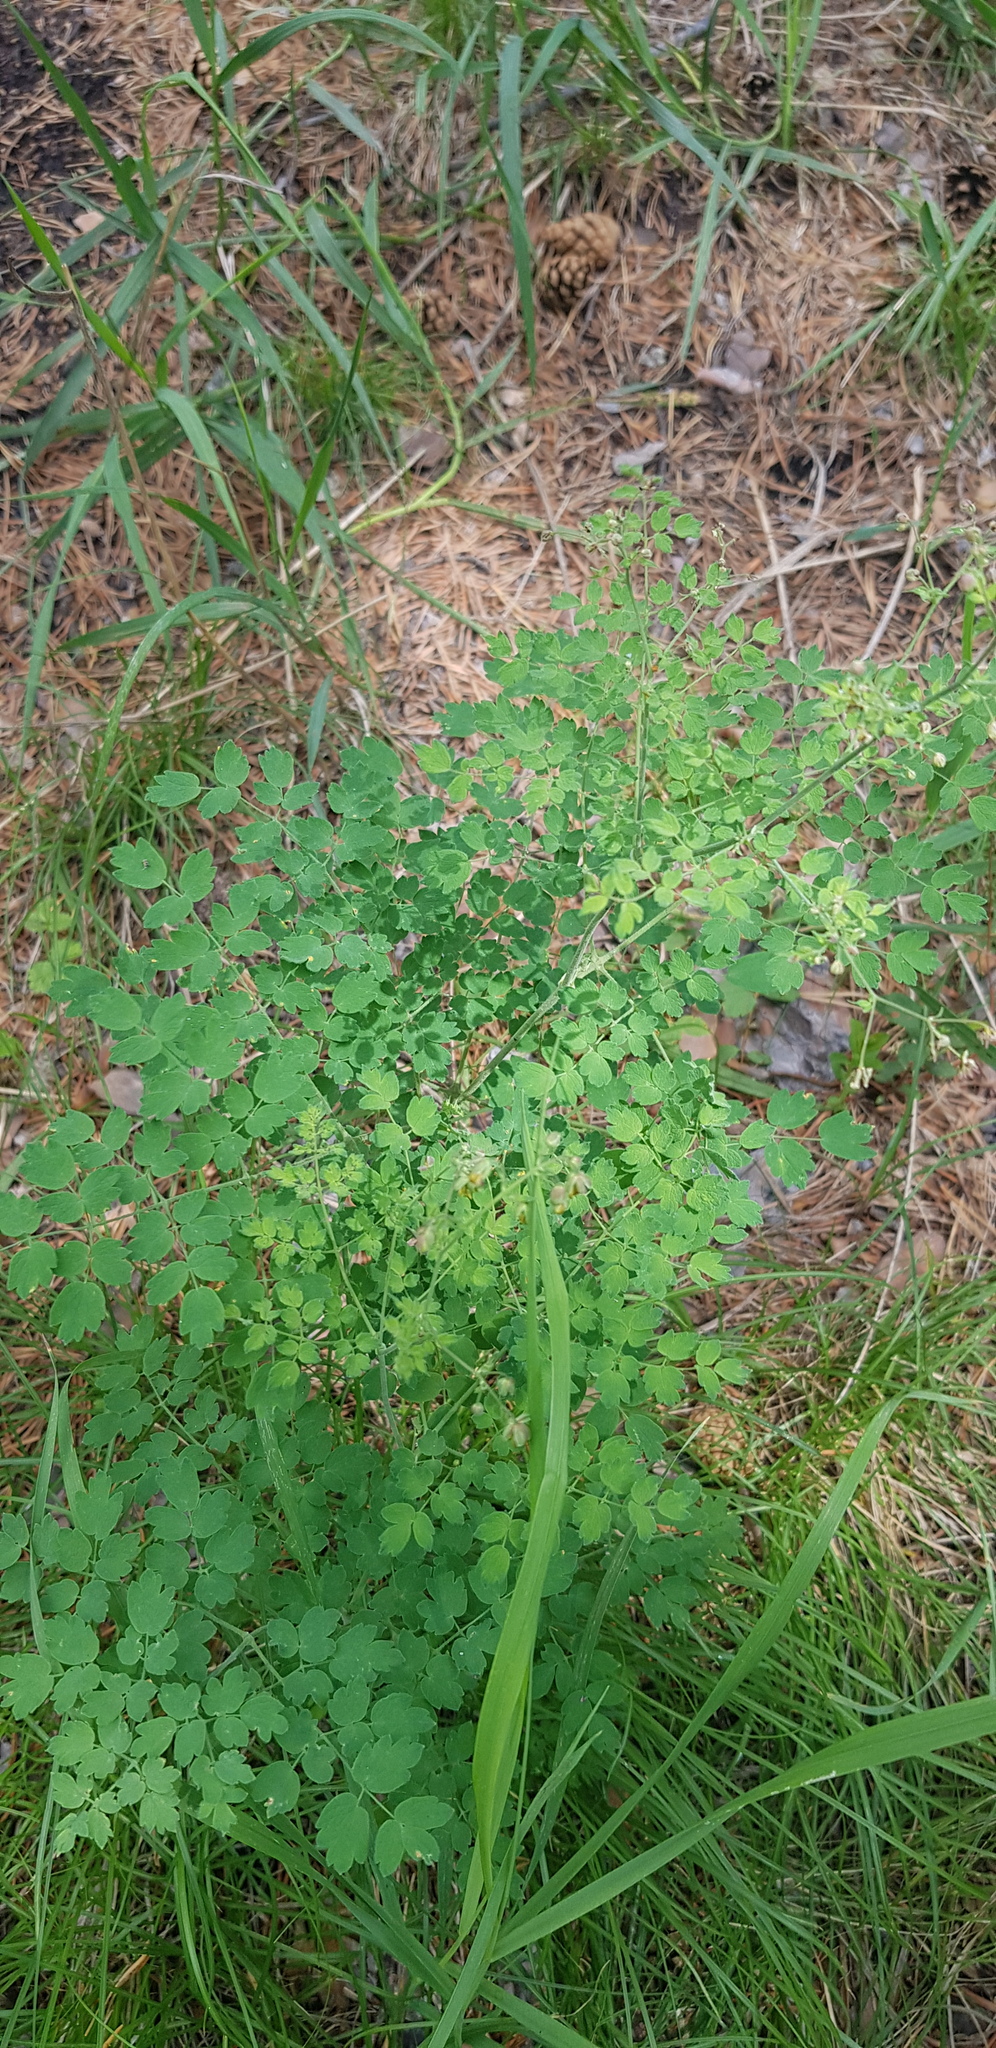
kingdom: Plantae
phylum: Tracheophyta
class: Magnoliopsida
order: Ranunculales
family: Ranunculaceae
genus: Thalictrum
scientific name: Thalictrum foetidum
